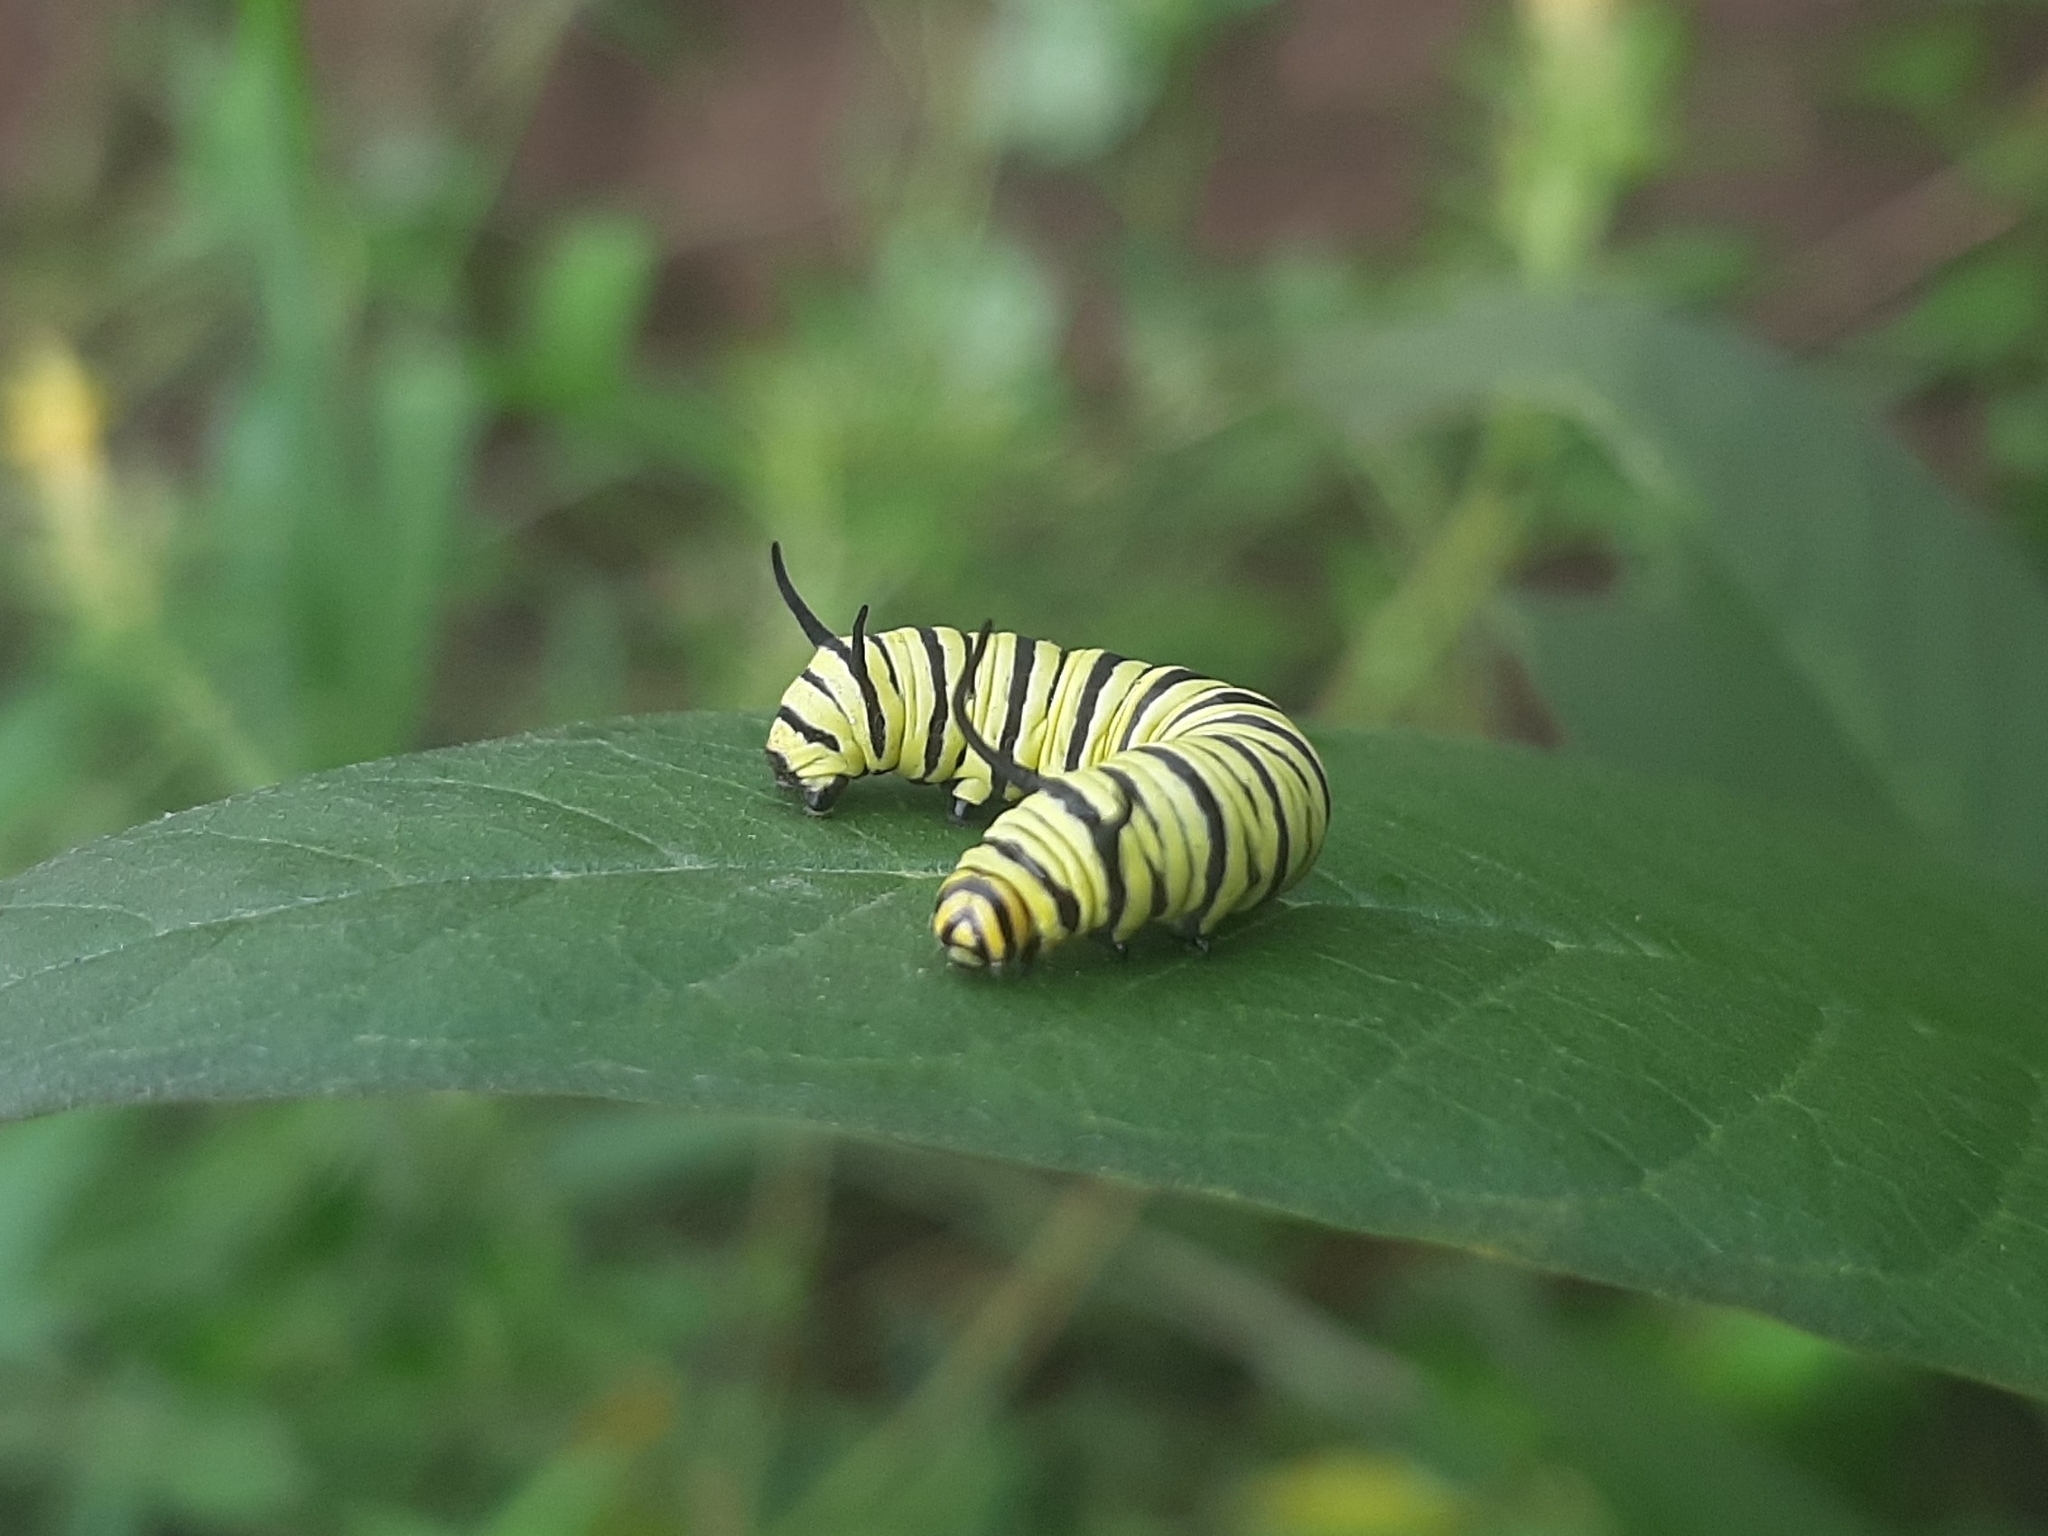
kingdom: Animalia
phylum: Arthropoda
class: Insecta
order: Lepidoptera
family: Nymphalidae
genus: Danaus
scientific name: Danaus erippus
